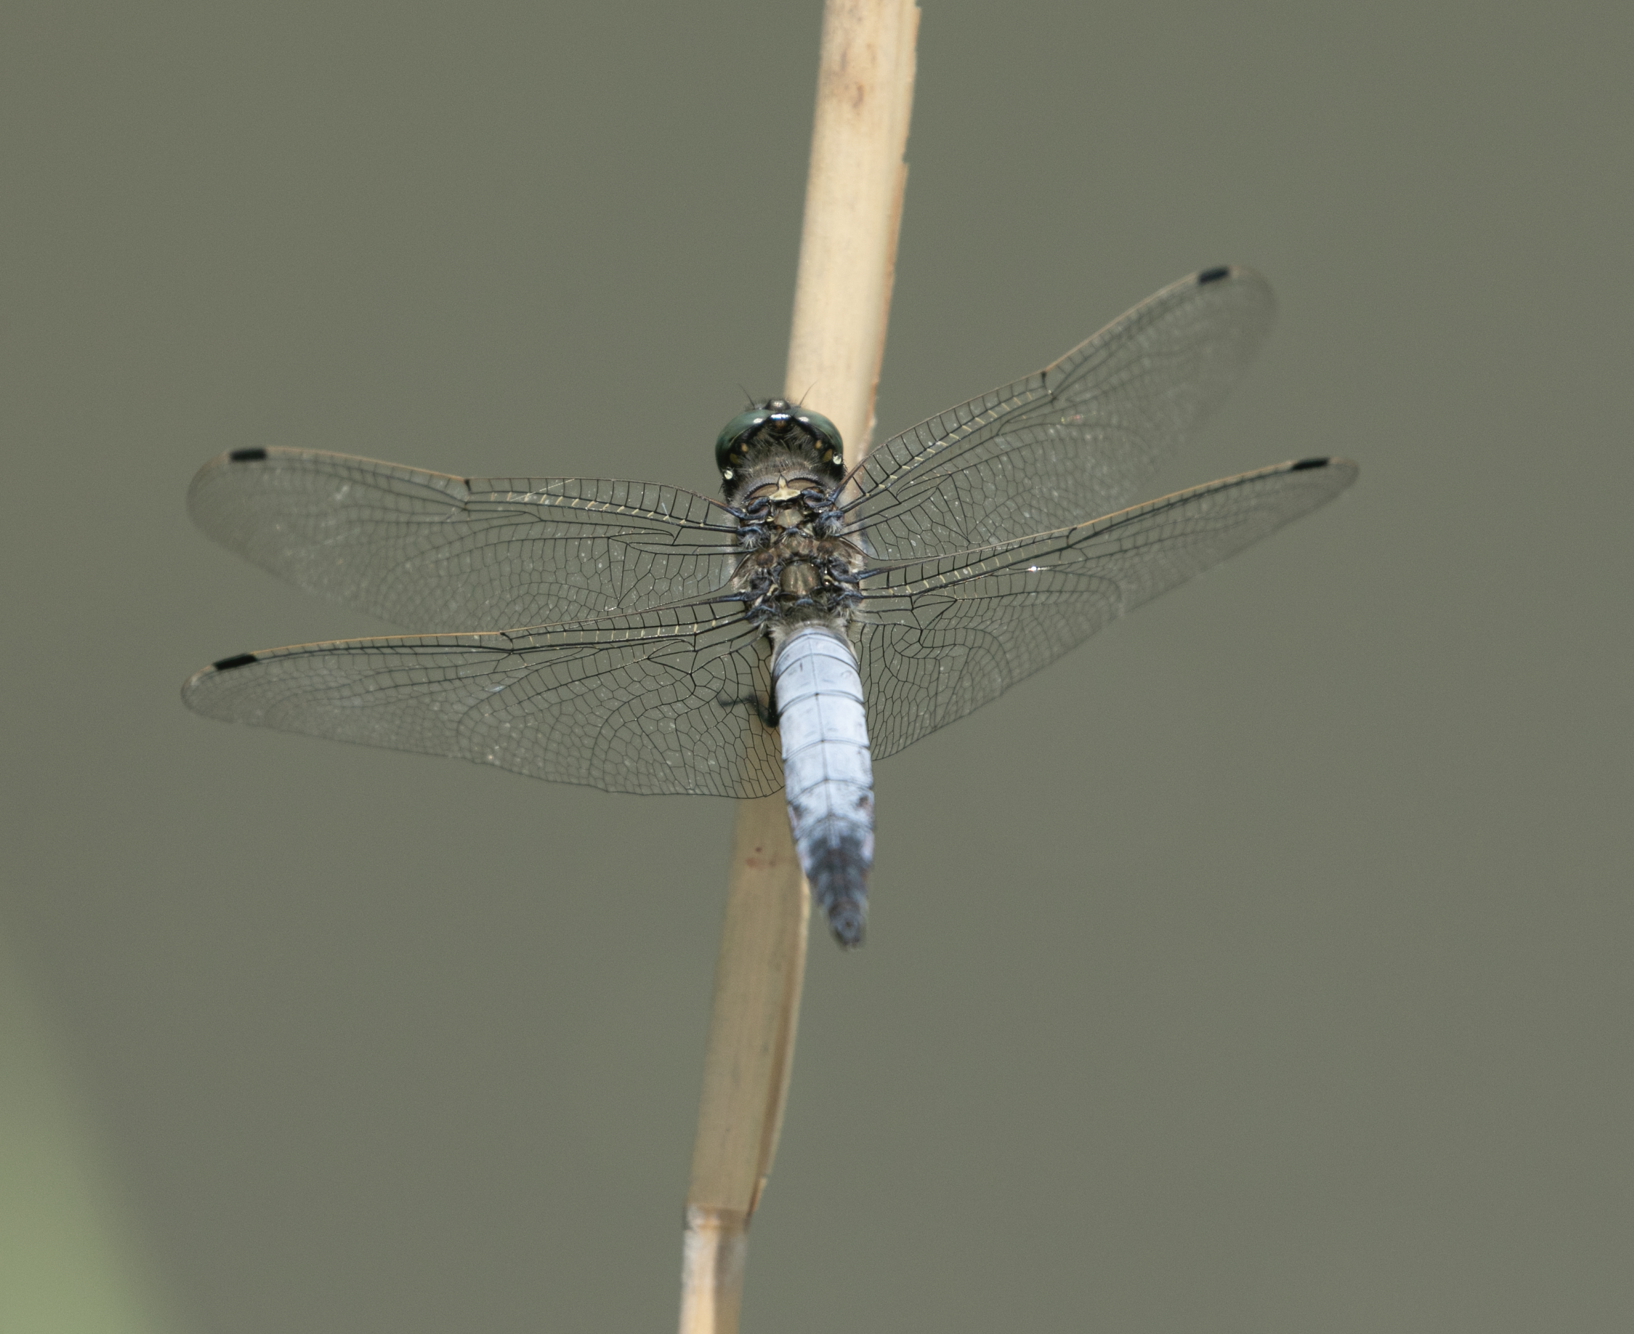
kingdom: Animalia
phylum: Arthropoda
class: Insecta
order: Odonata
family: Libellulidae
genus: Orthetrum
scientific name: Orthetrum cancellatum
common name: Black-tailed skimmer
